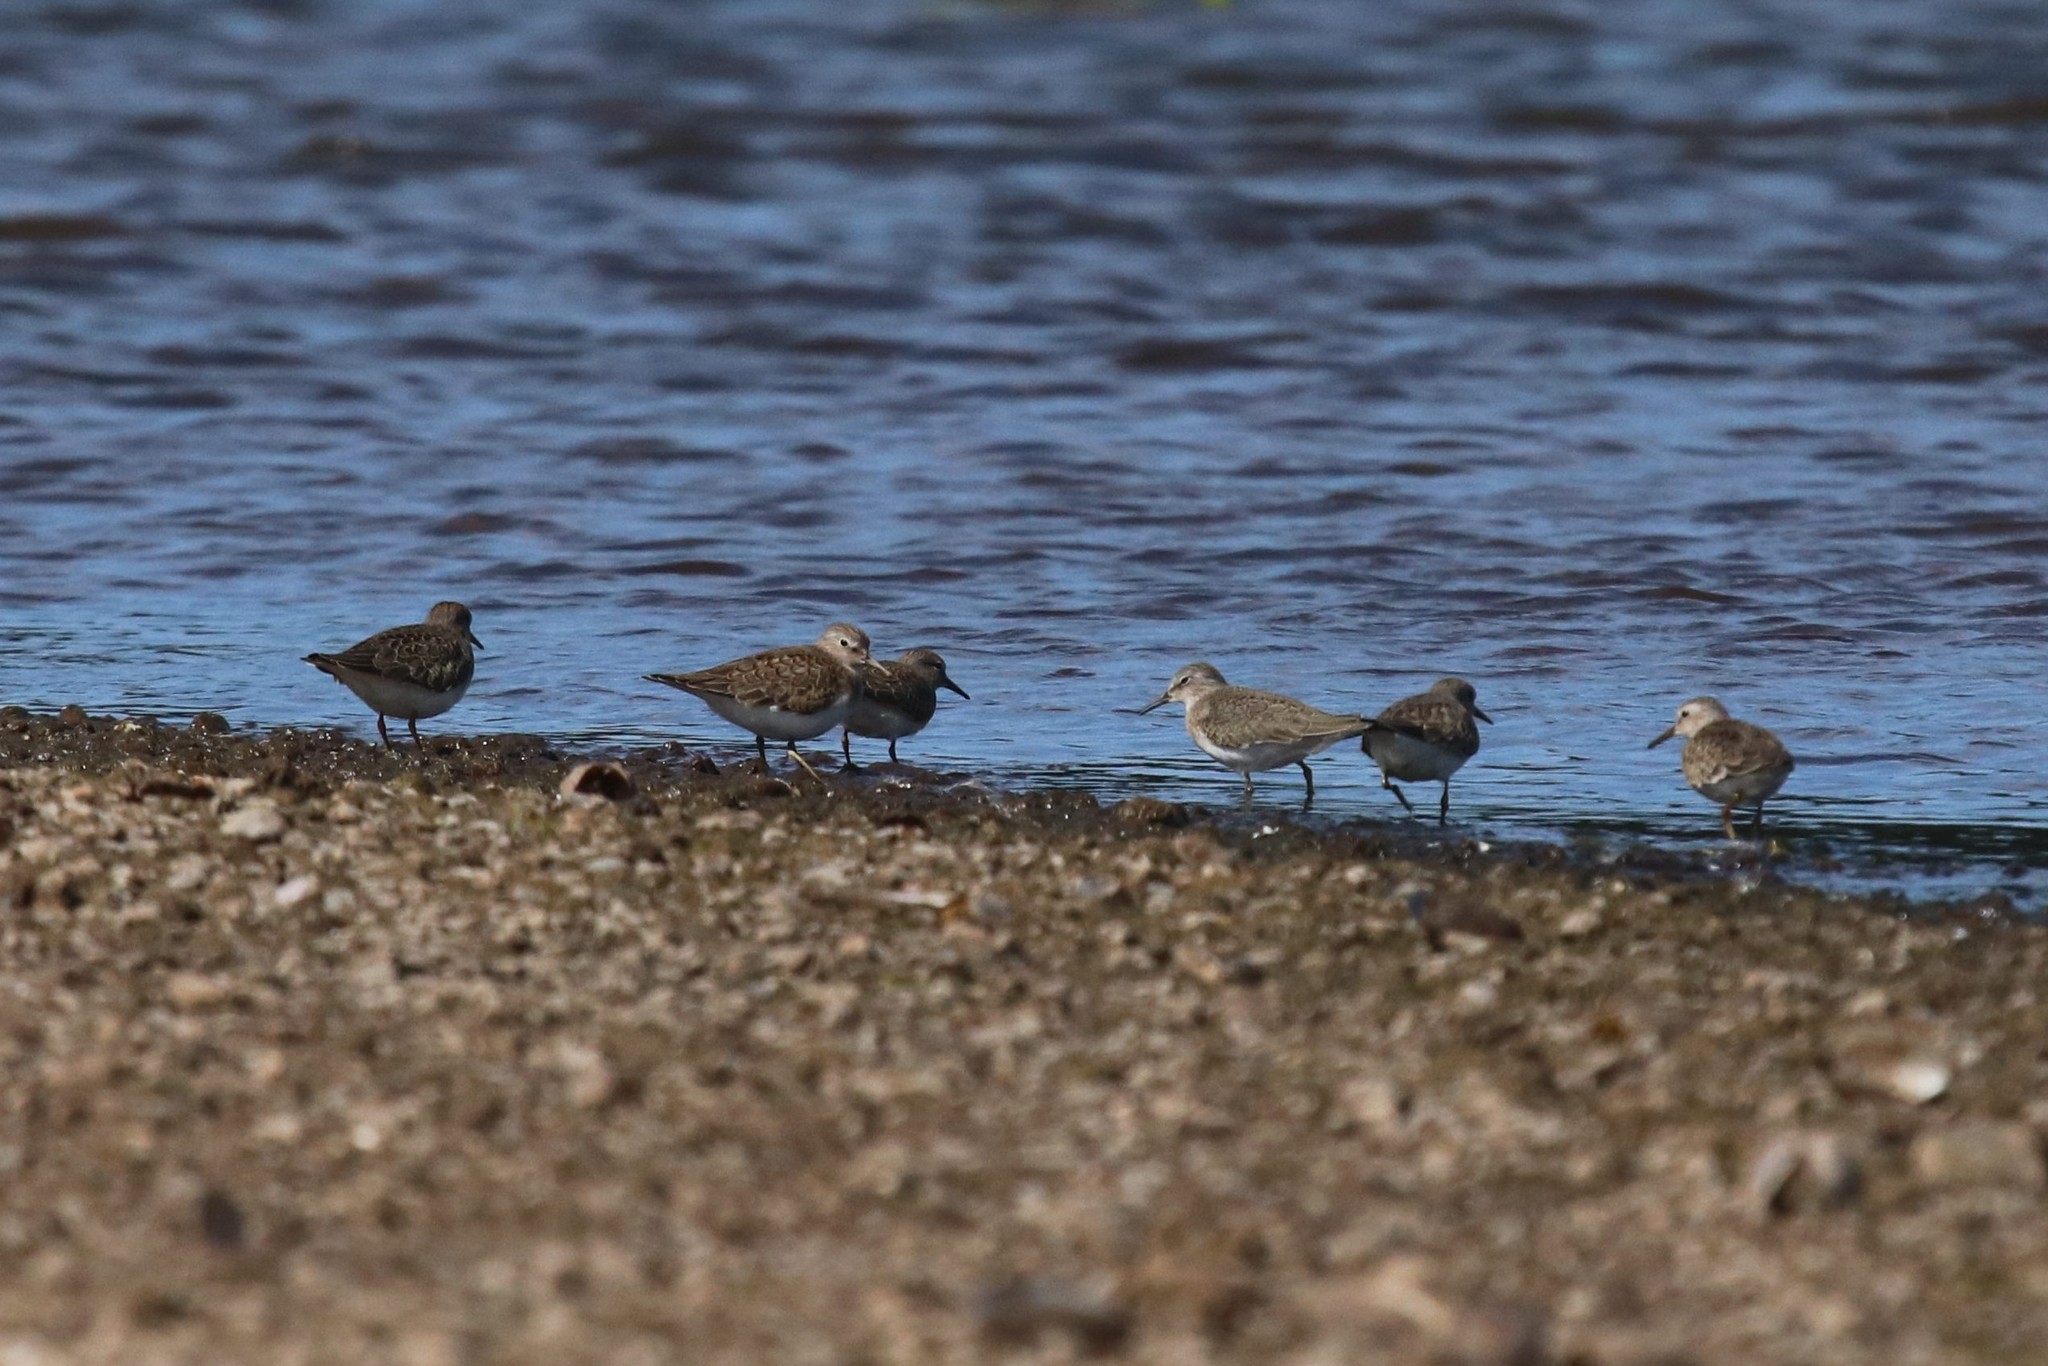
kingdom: Animalia
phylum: Chordata
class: Aves
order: Charadriiformes
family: Scolopacidae
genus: Calidris
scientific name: Calidris temminckii
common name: Temminck's stint
